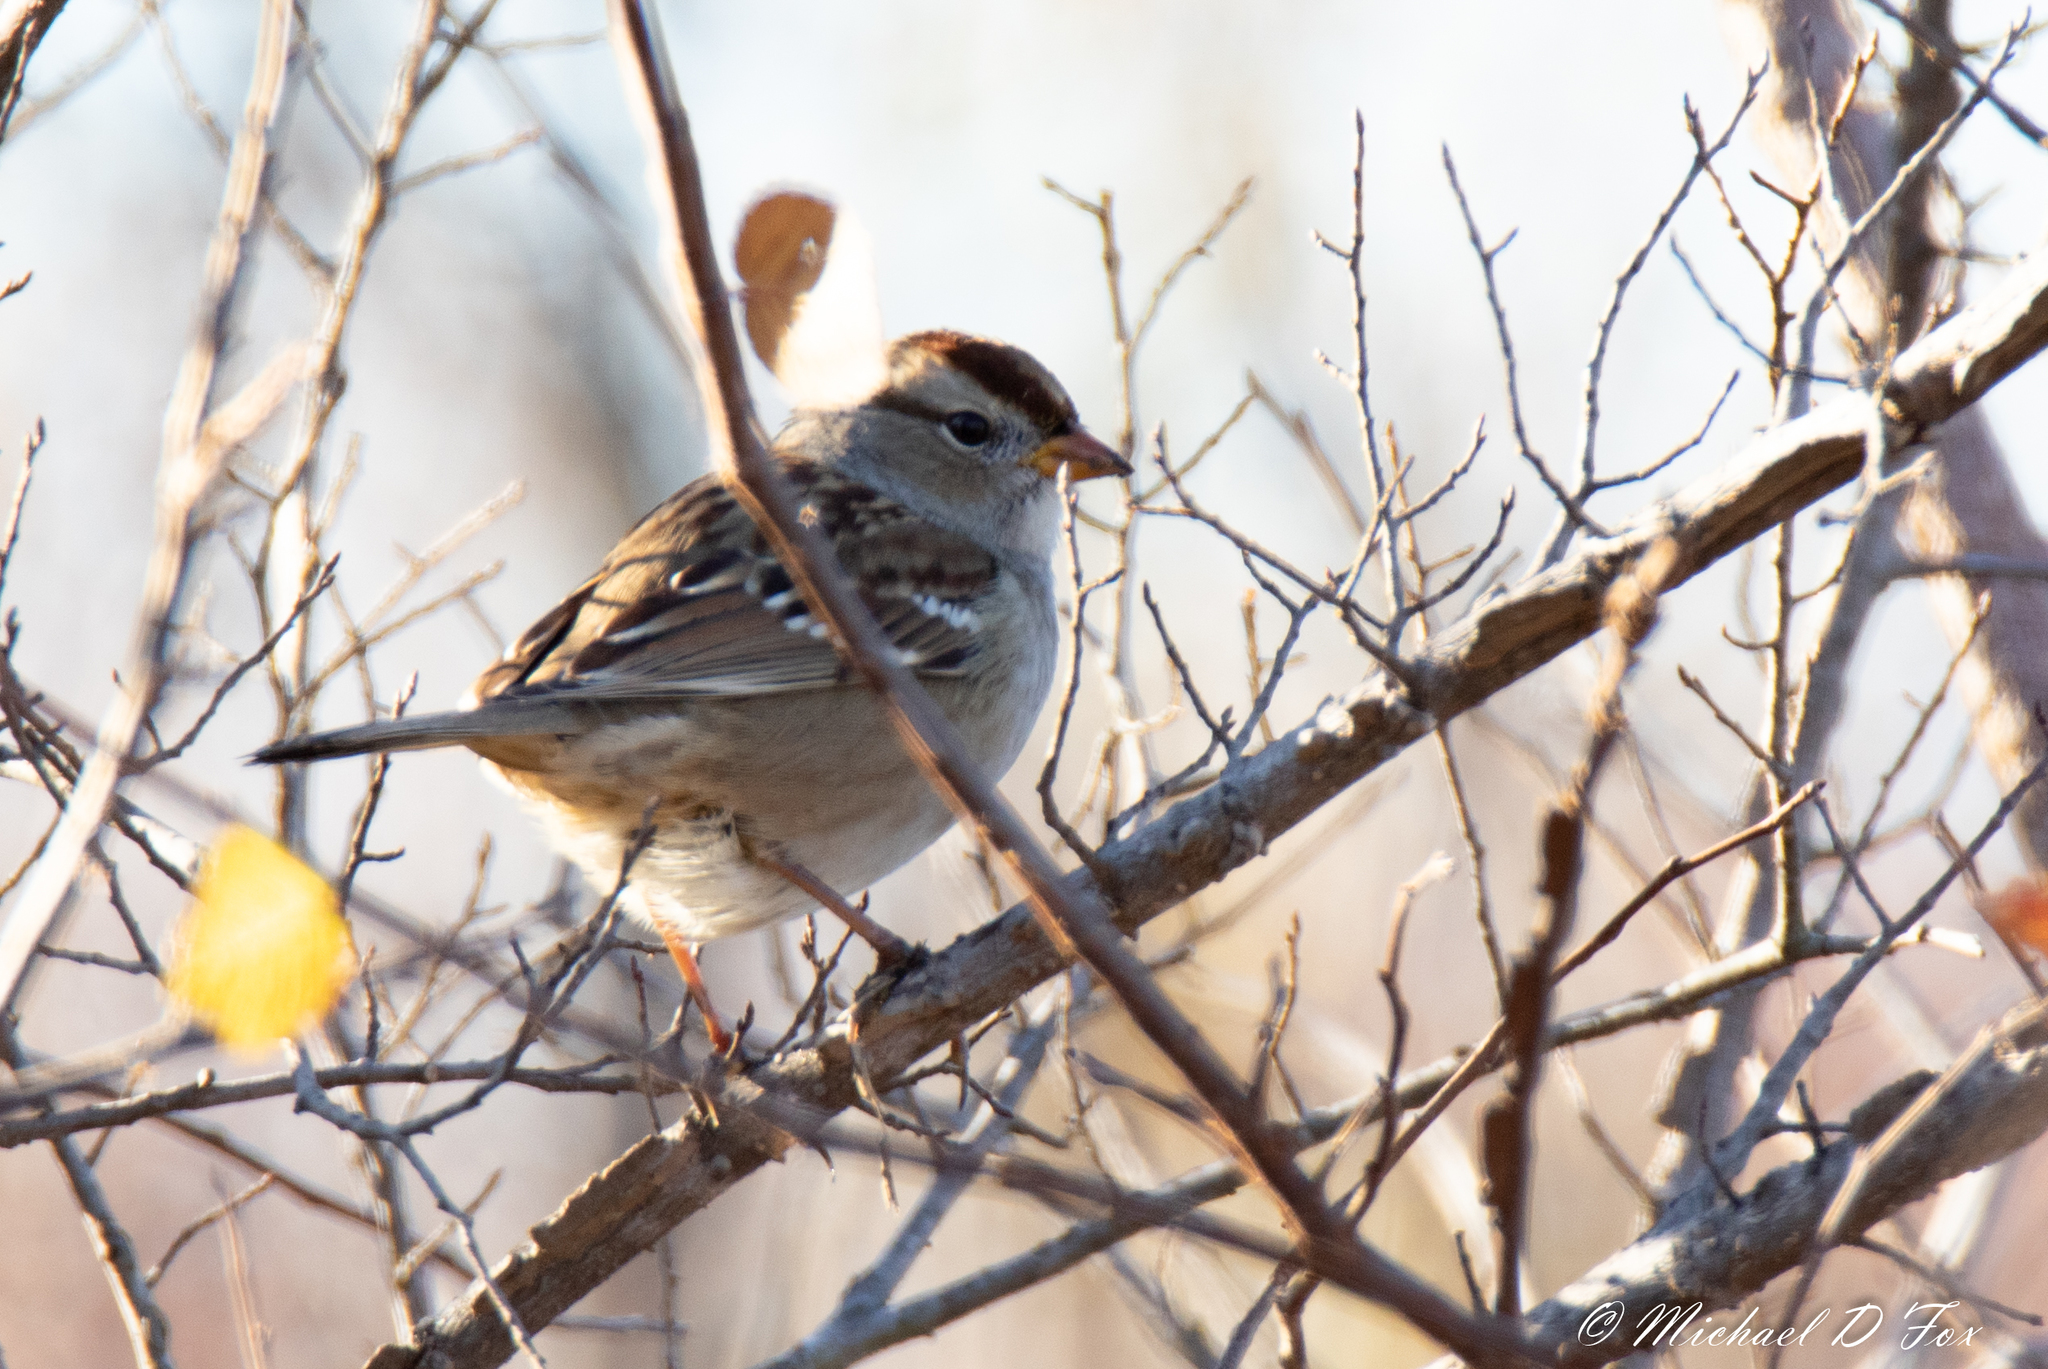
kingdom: Animalia
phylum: Chordata
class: Aves
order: Passeriformes
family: Passerellidae
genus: Zonotrichia
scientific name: Zonotrichia leucophrys
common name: White-crowned sparrow
